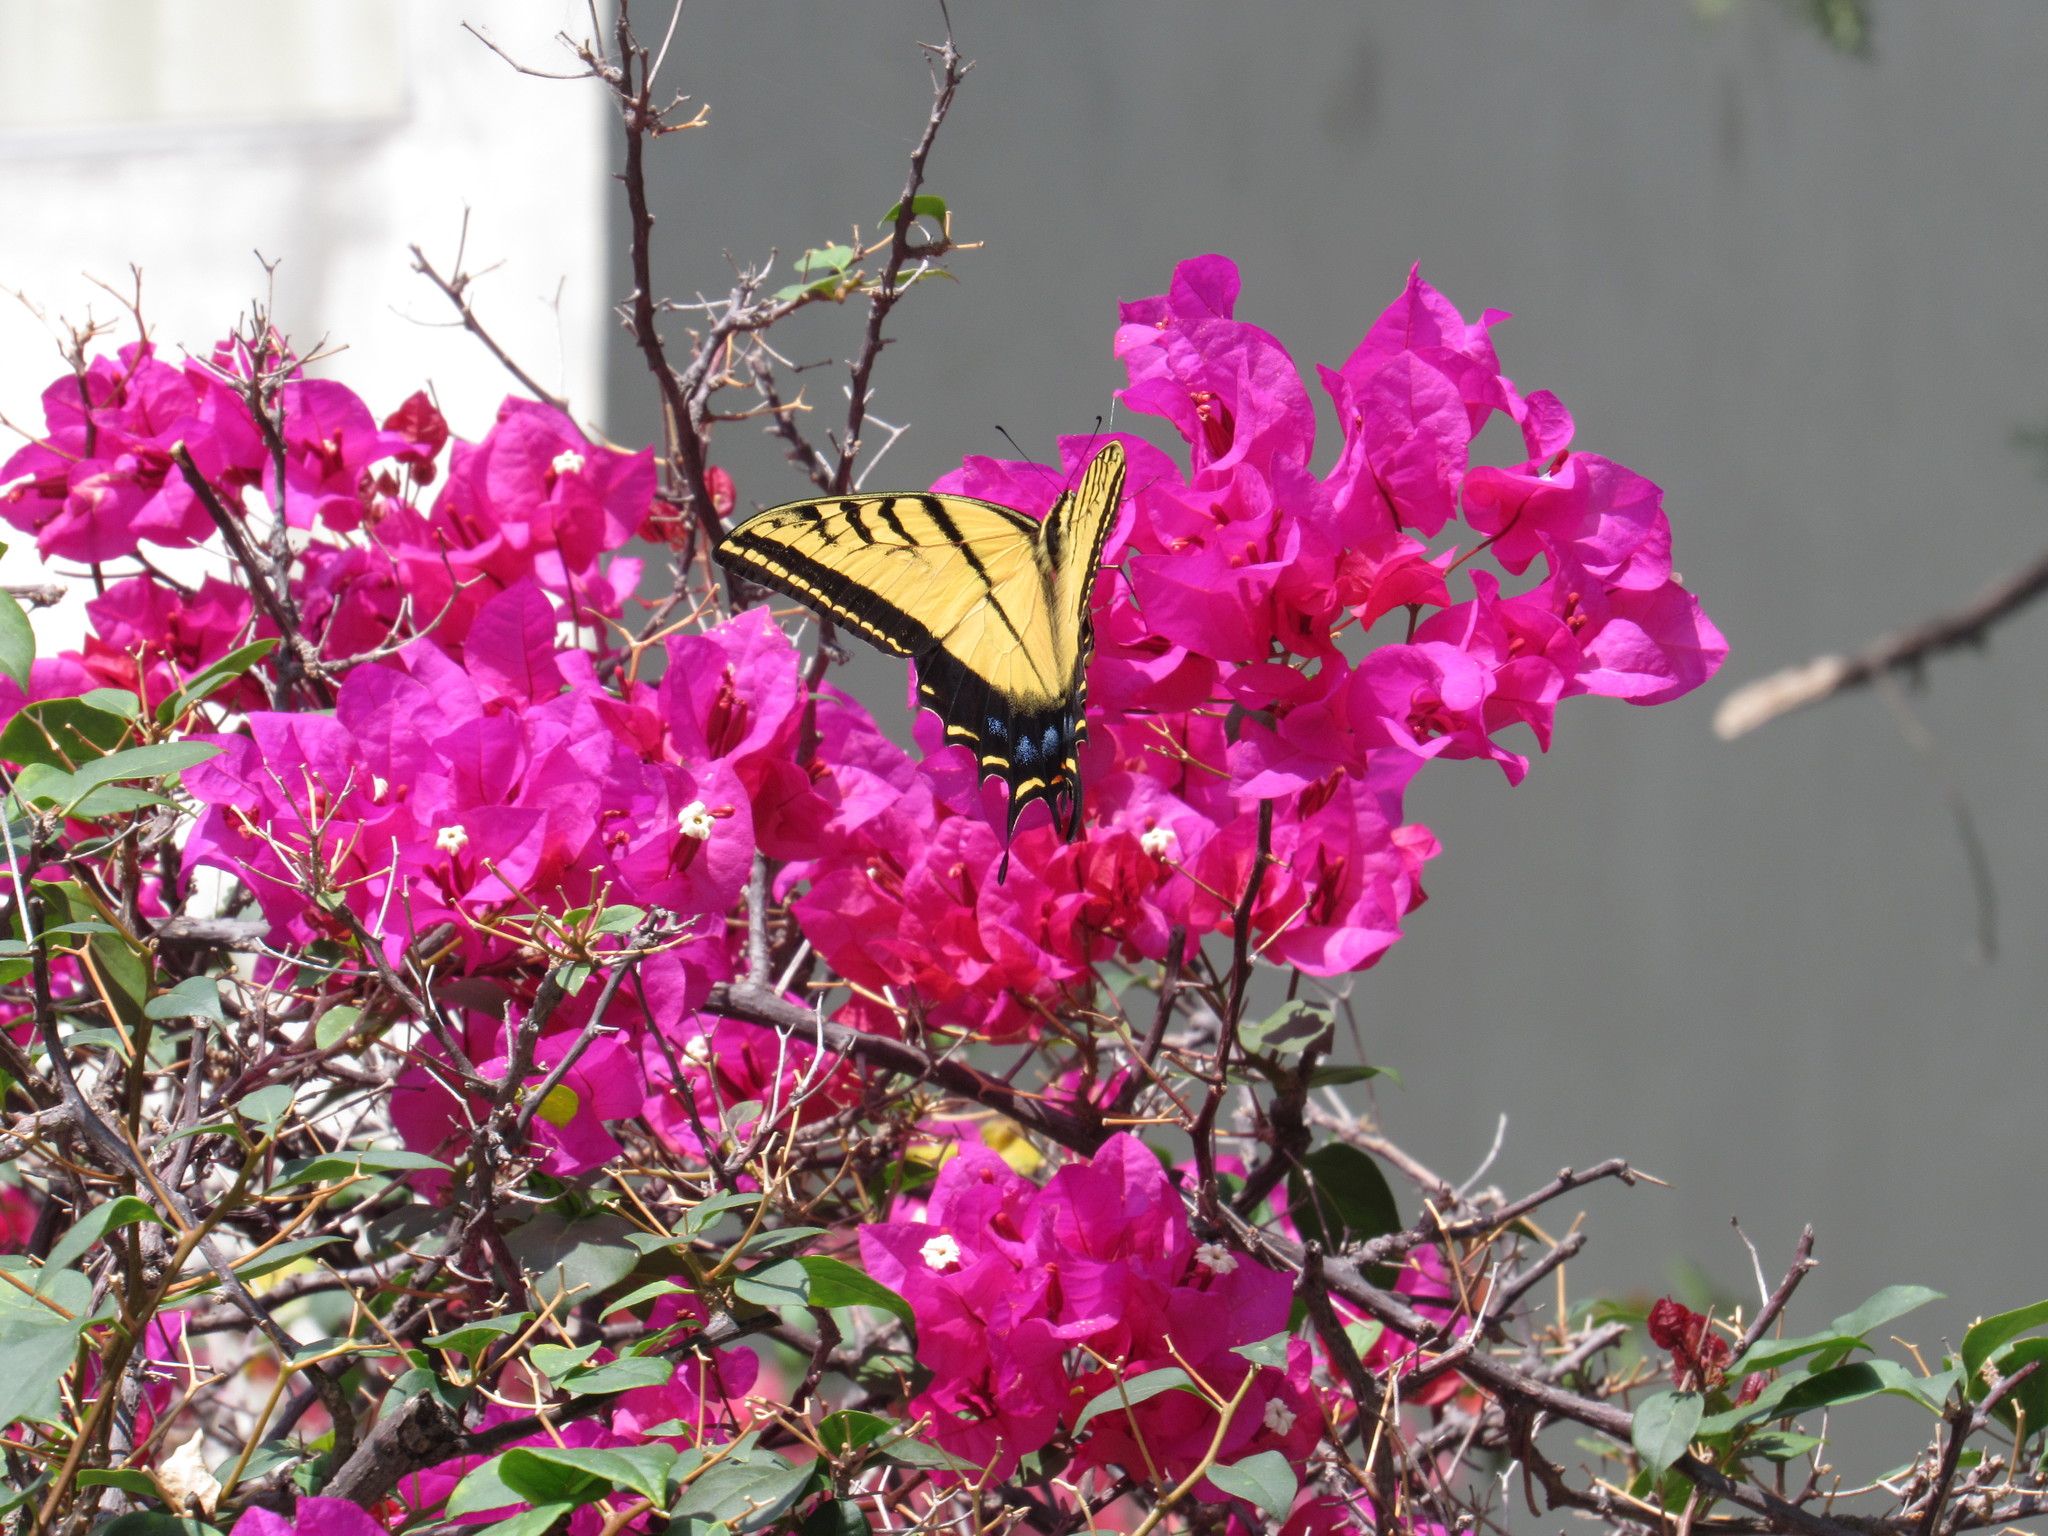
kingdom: Animalia
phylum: Arthropoda
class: Insecta
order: Lepidoptera
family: Papilionidae
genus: Papilio
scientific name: Papilio multicaudata
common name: Two-tailed tiger swallowtail
